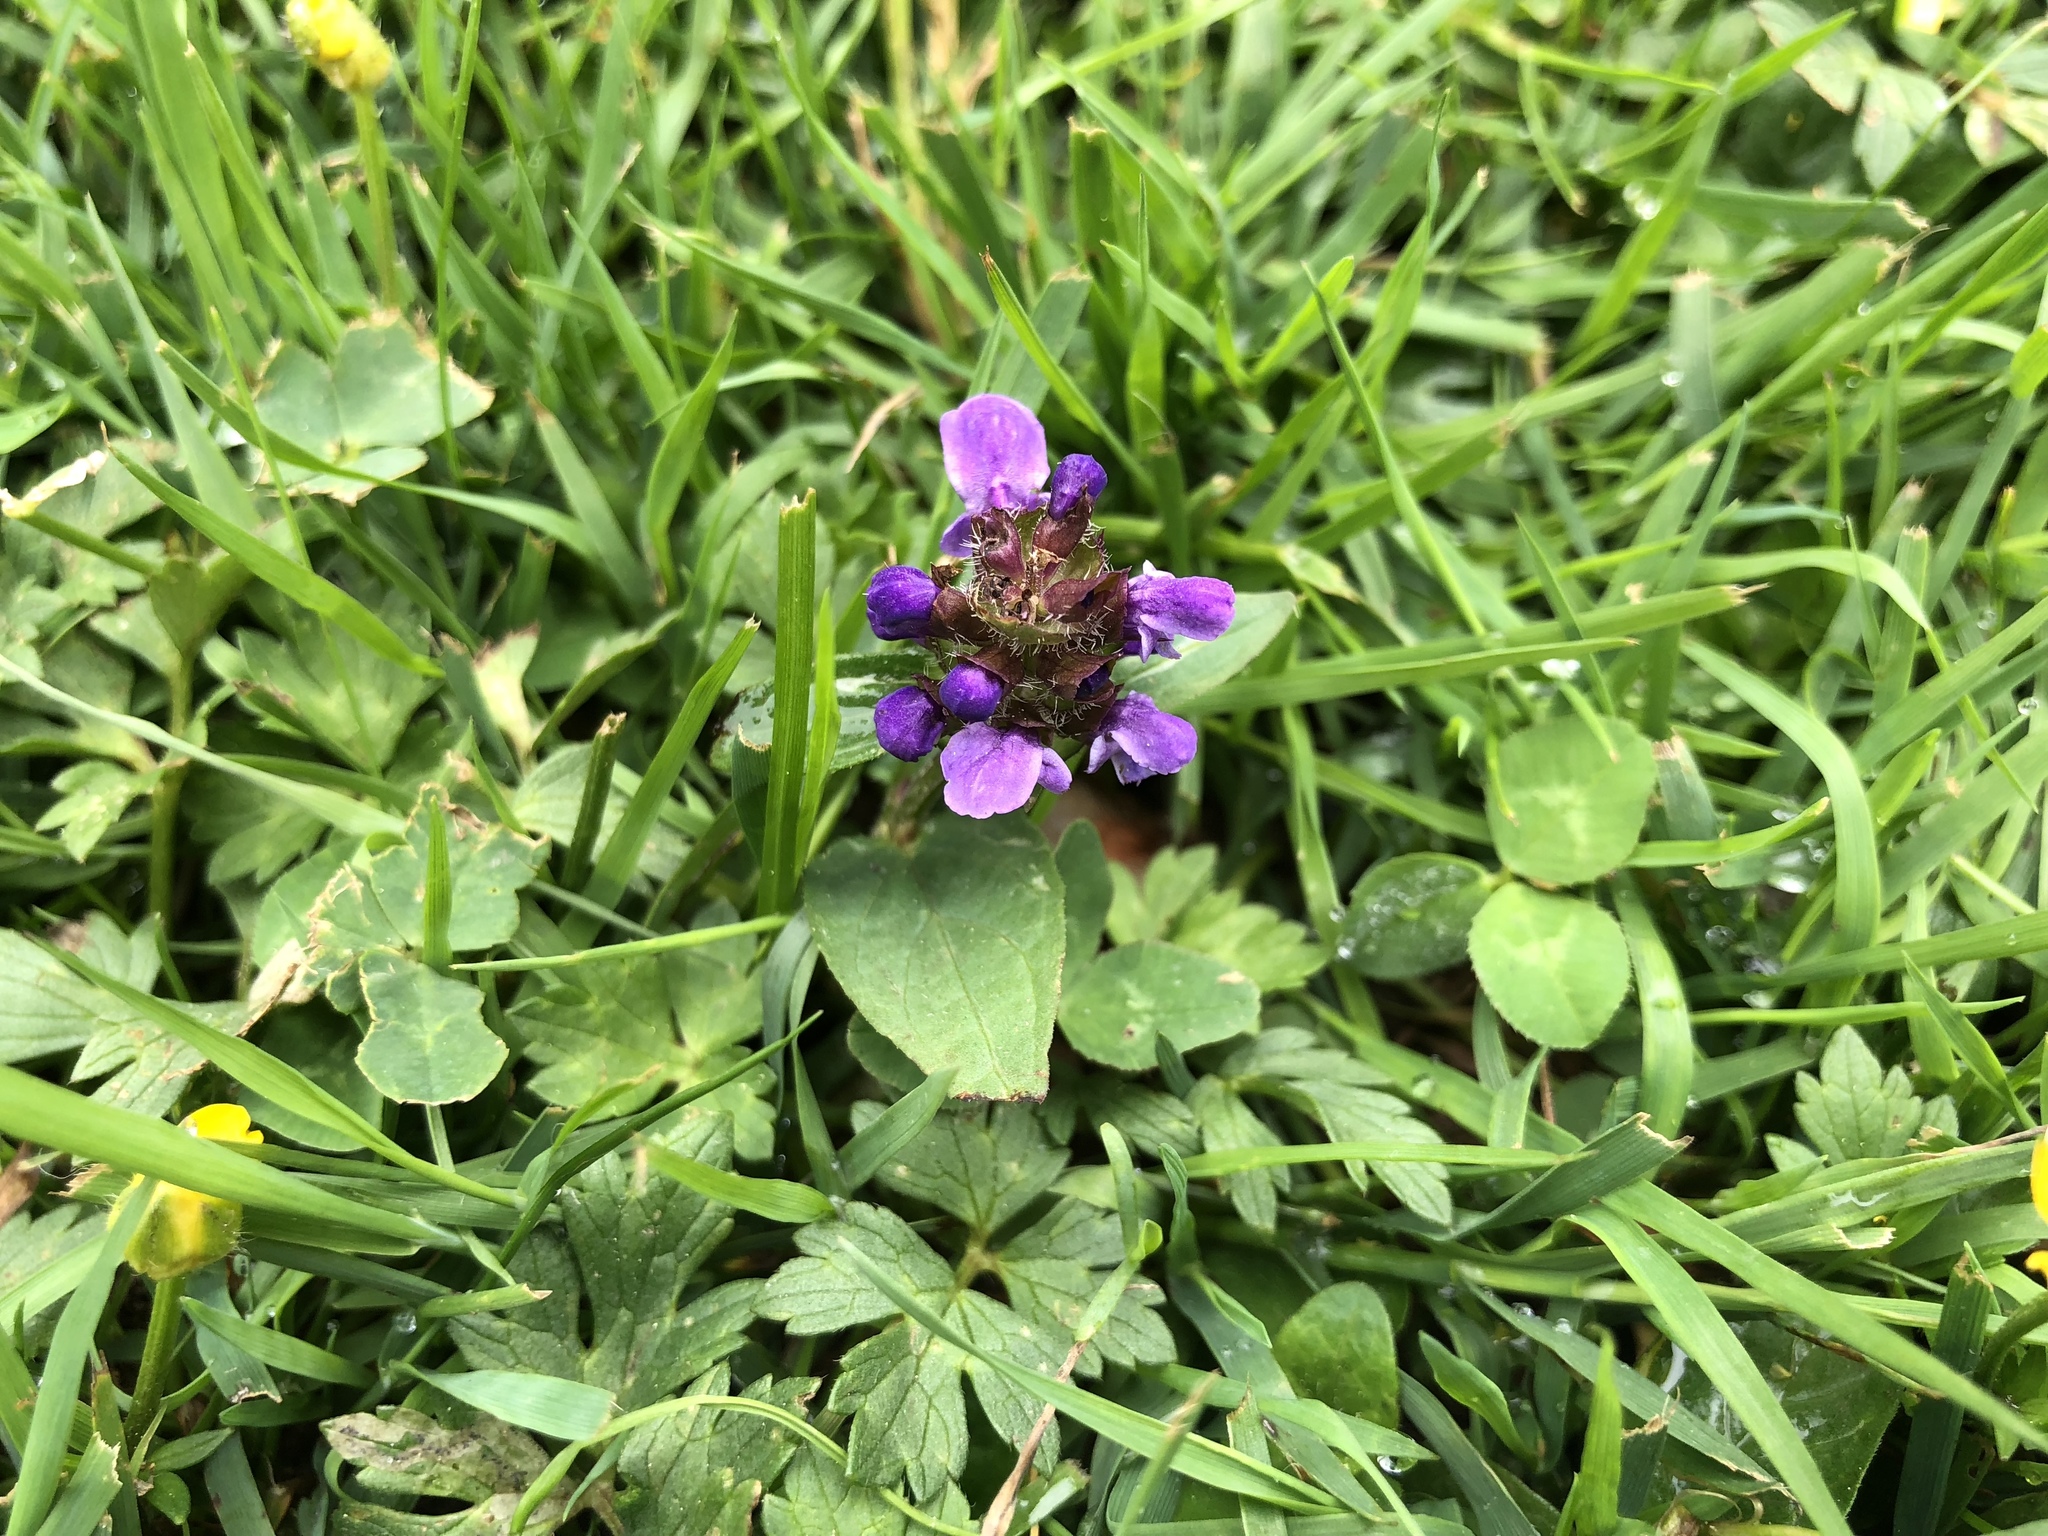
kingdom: Plantae
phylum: Tracheophyta
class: Magnoliopsida
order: Lamiales
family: Lamiaceae
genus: Prunella
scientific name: Prunella vulgaris
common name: Heal-all
